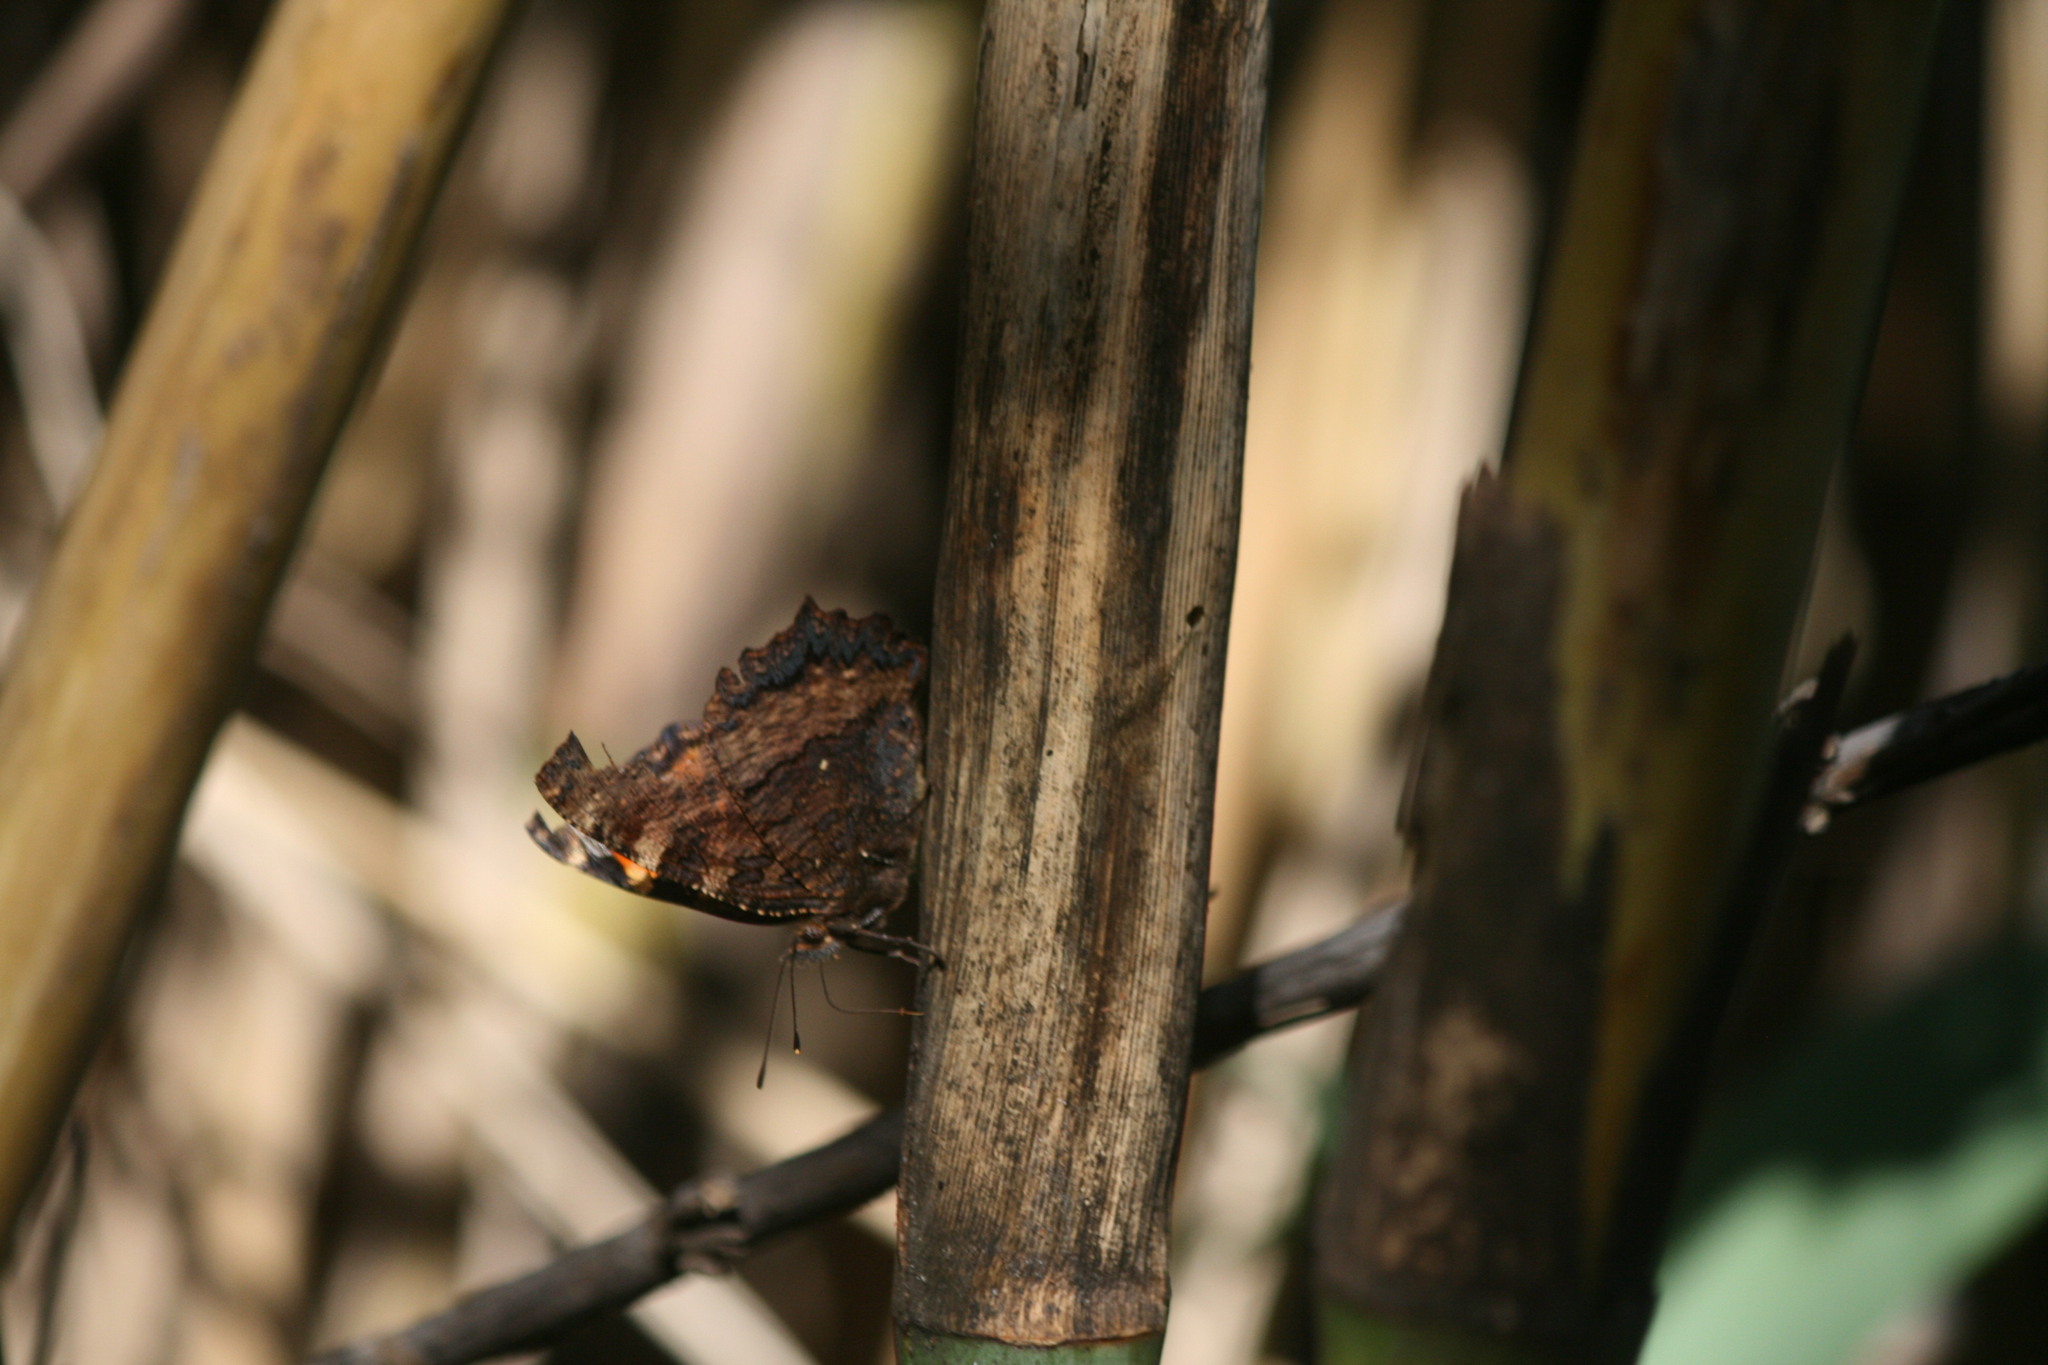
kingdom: Animalia
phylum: Arthropoda
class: Insecta
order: Lepidoptera
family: Nymphalidae
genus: Nymphalis
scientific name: Nymphalis polychloros
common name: Large tortoiseshell
